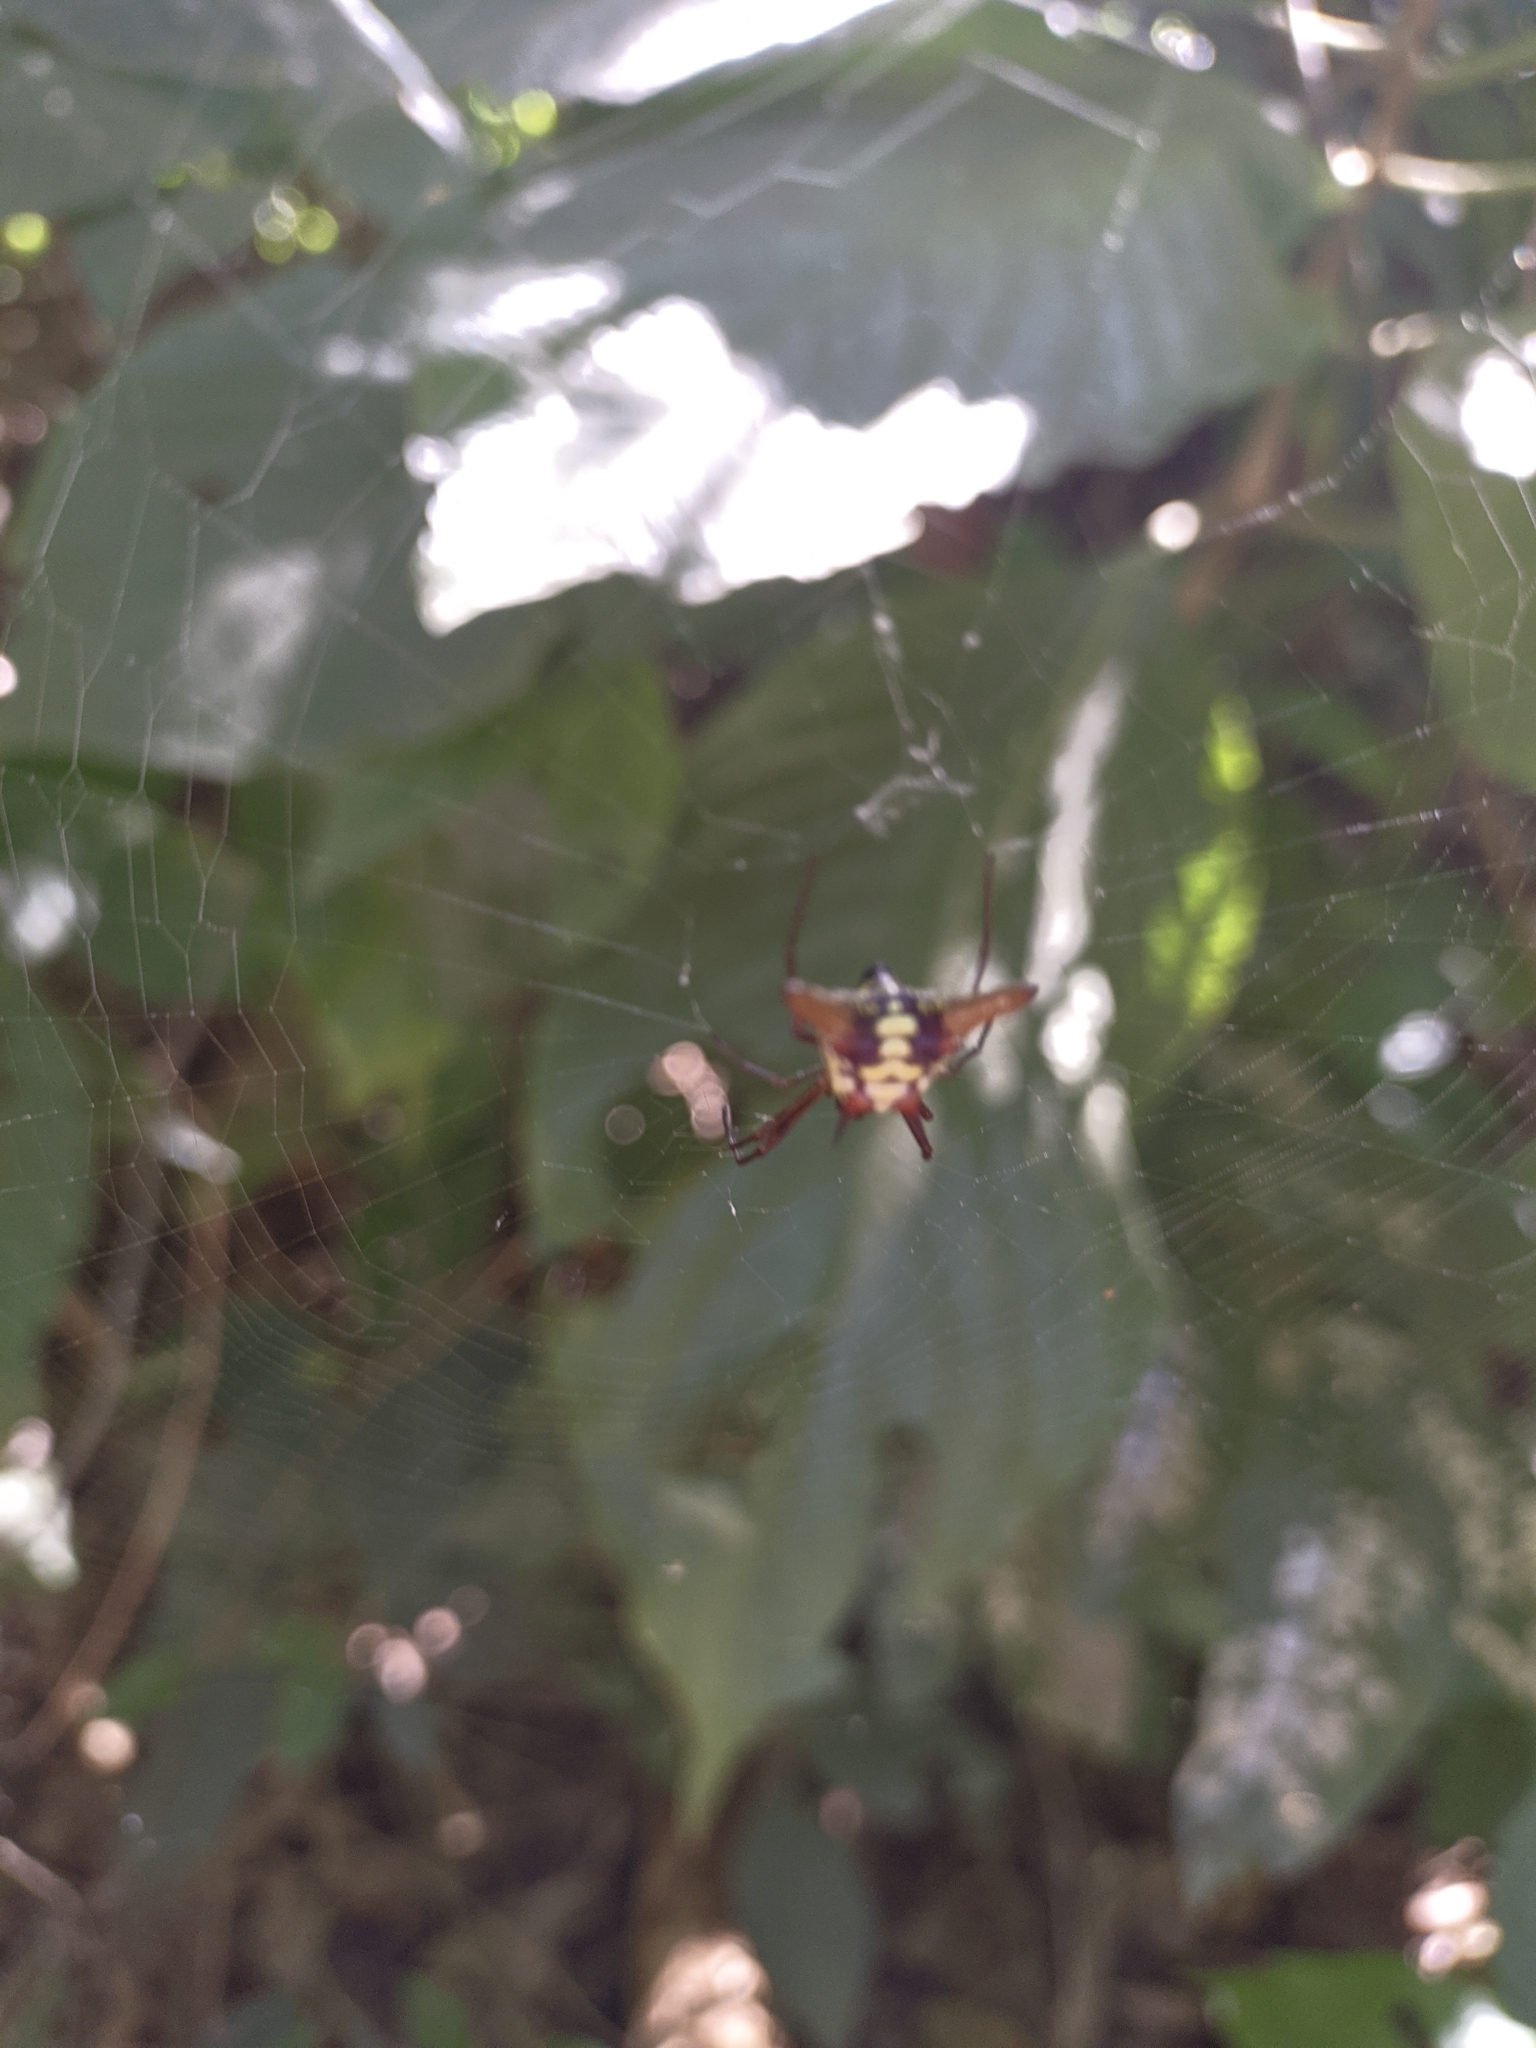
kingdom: Animalia
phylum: Arthropoda
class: Arachnida
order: Araneae
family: Araneidae
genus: Micrathena
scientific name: Micrathena sexspinosa
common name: Orb weavers
